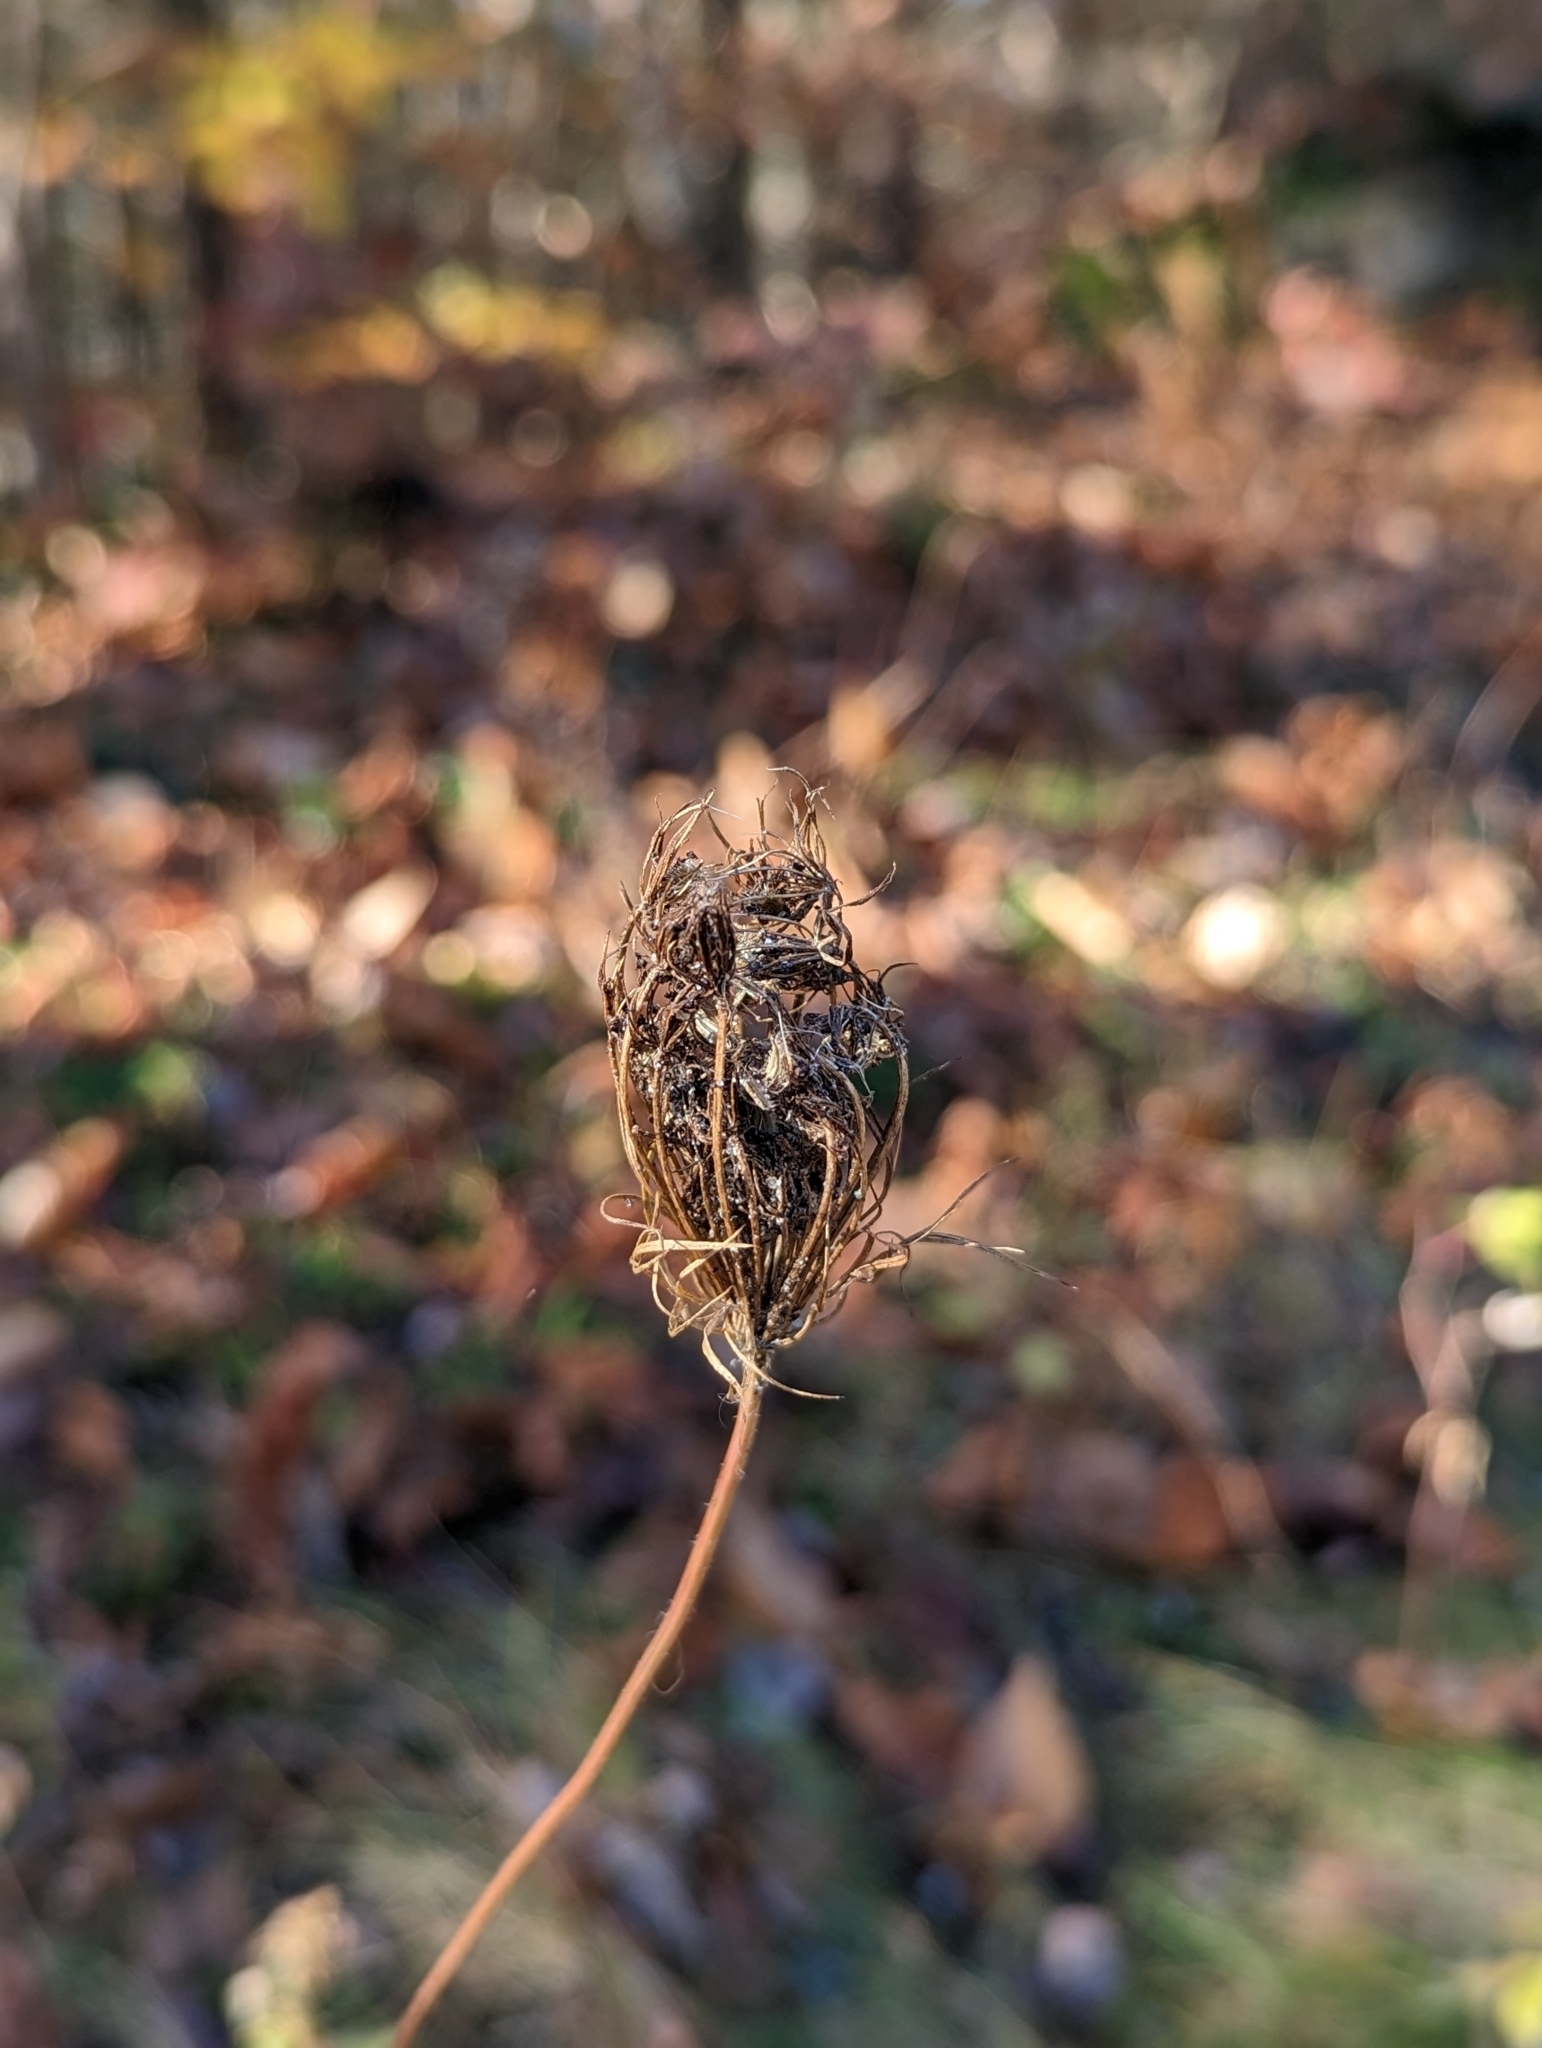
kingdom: Plantae
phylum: Tracheophyta
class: Magnoliopsida
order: Apiales
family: Apiaceae
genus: Daucus
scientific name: Daucus carota
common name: Wild carrot
